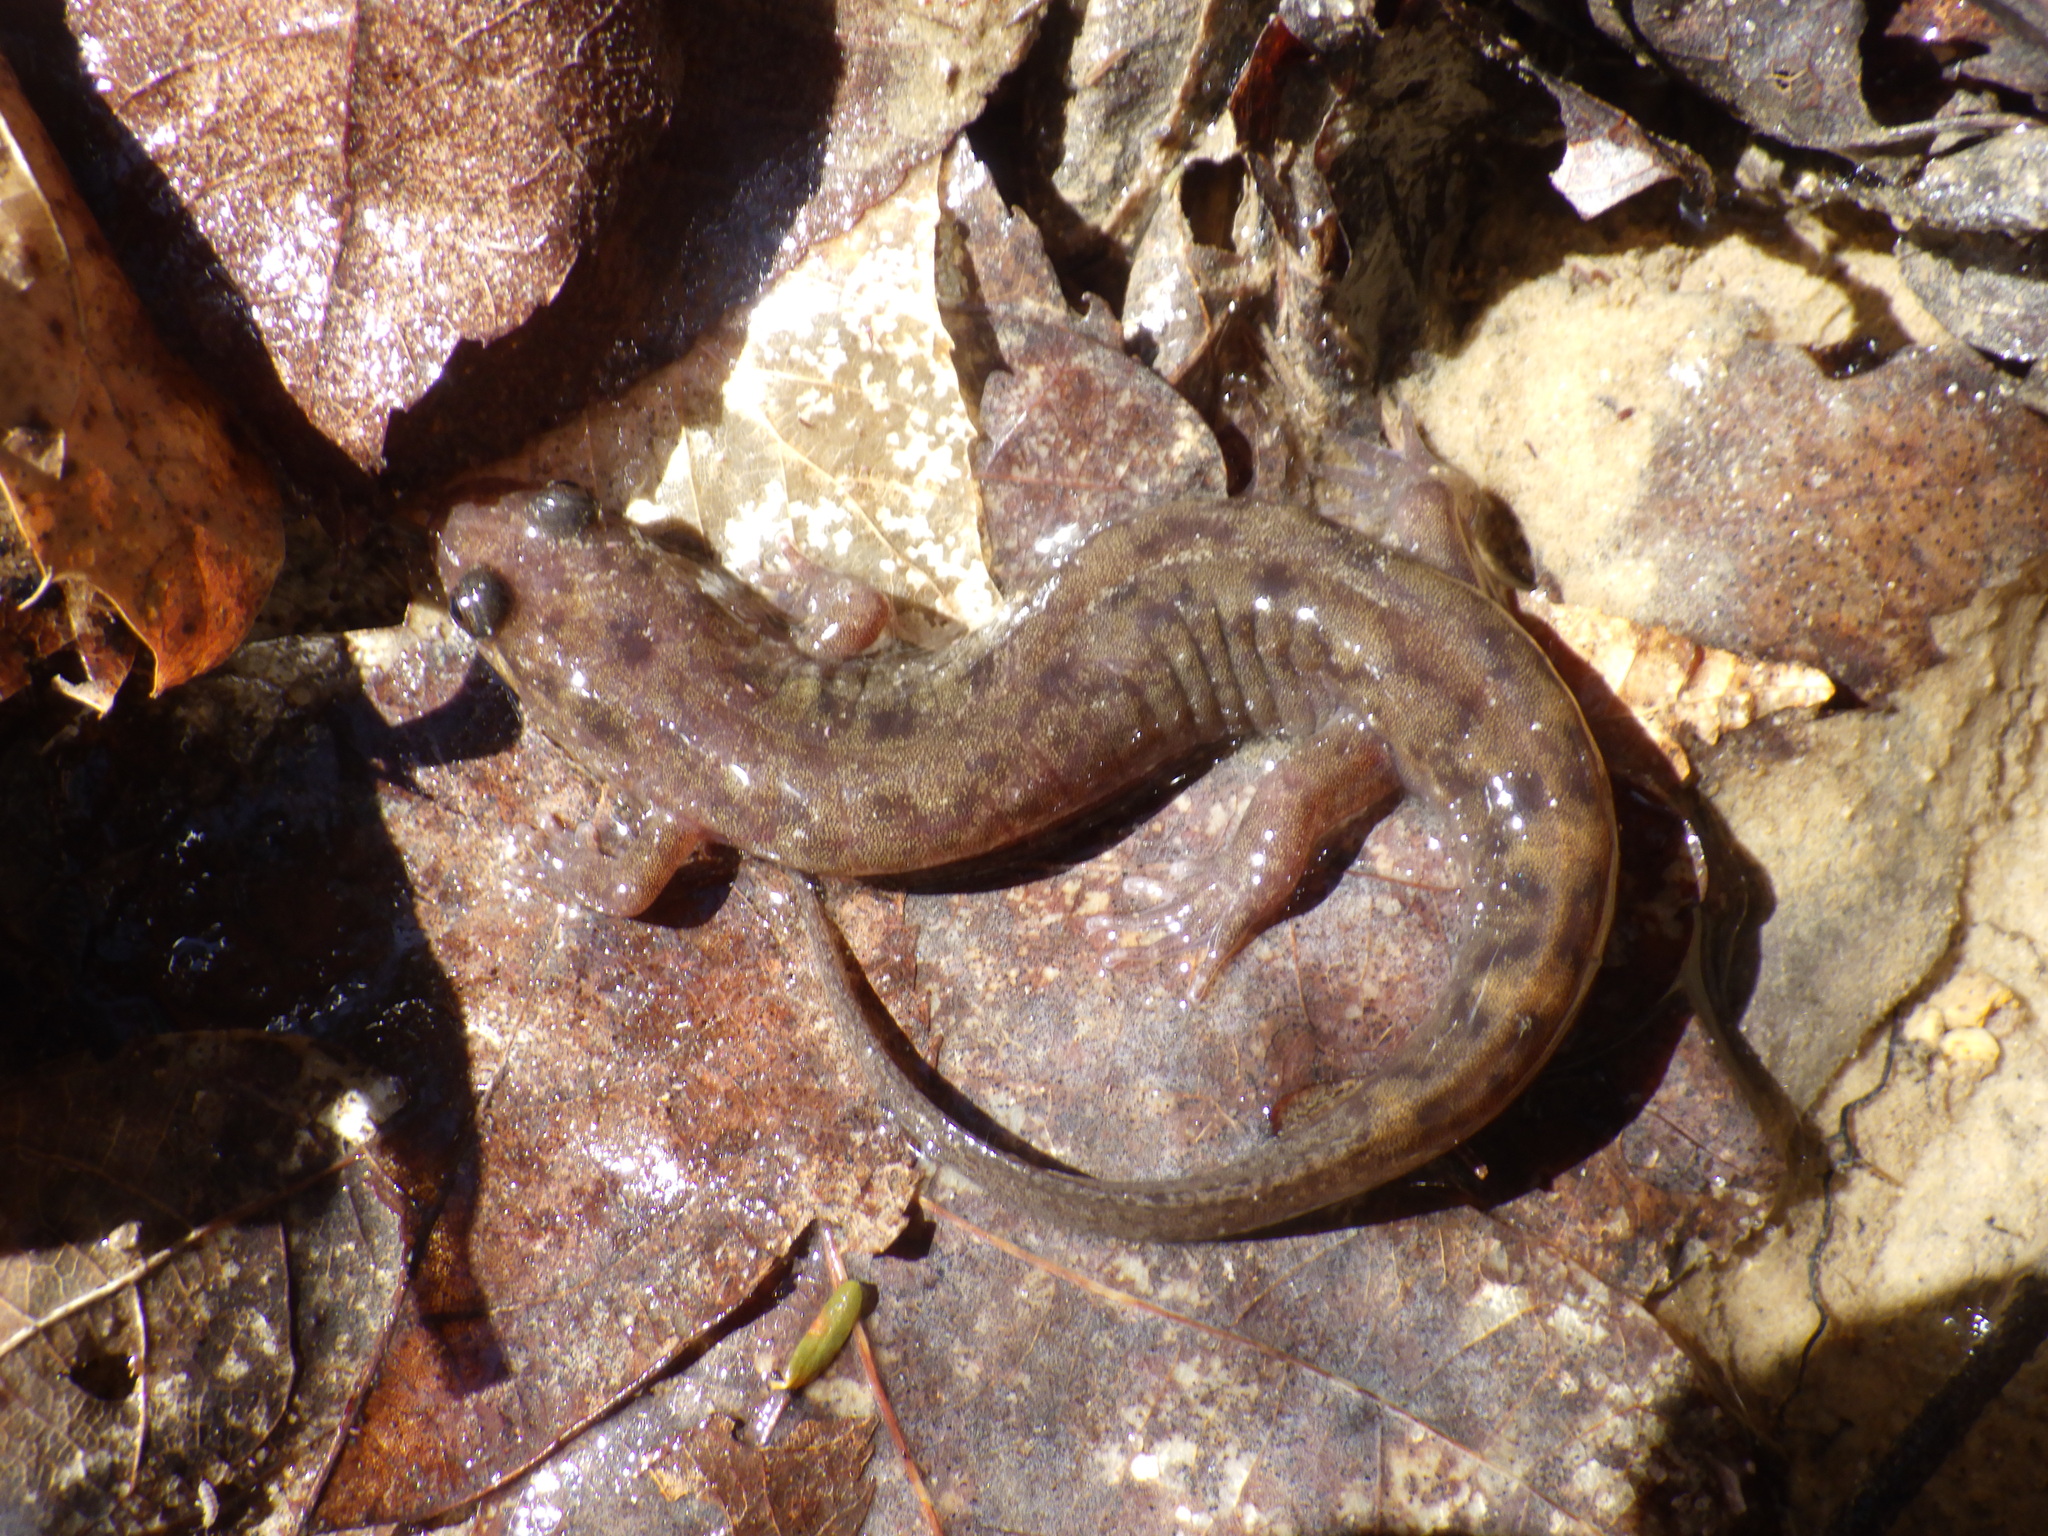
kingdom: Animalia
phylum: Chordata
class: Amphibia
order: Caudata
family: Plethodontidae
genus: Desmognathus
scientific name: Desmognathus monticola
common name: Seal salamander
